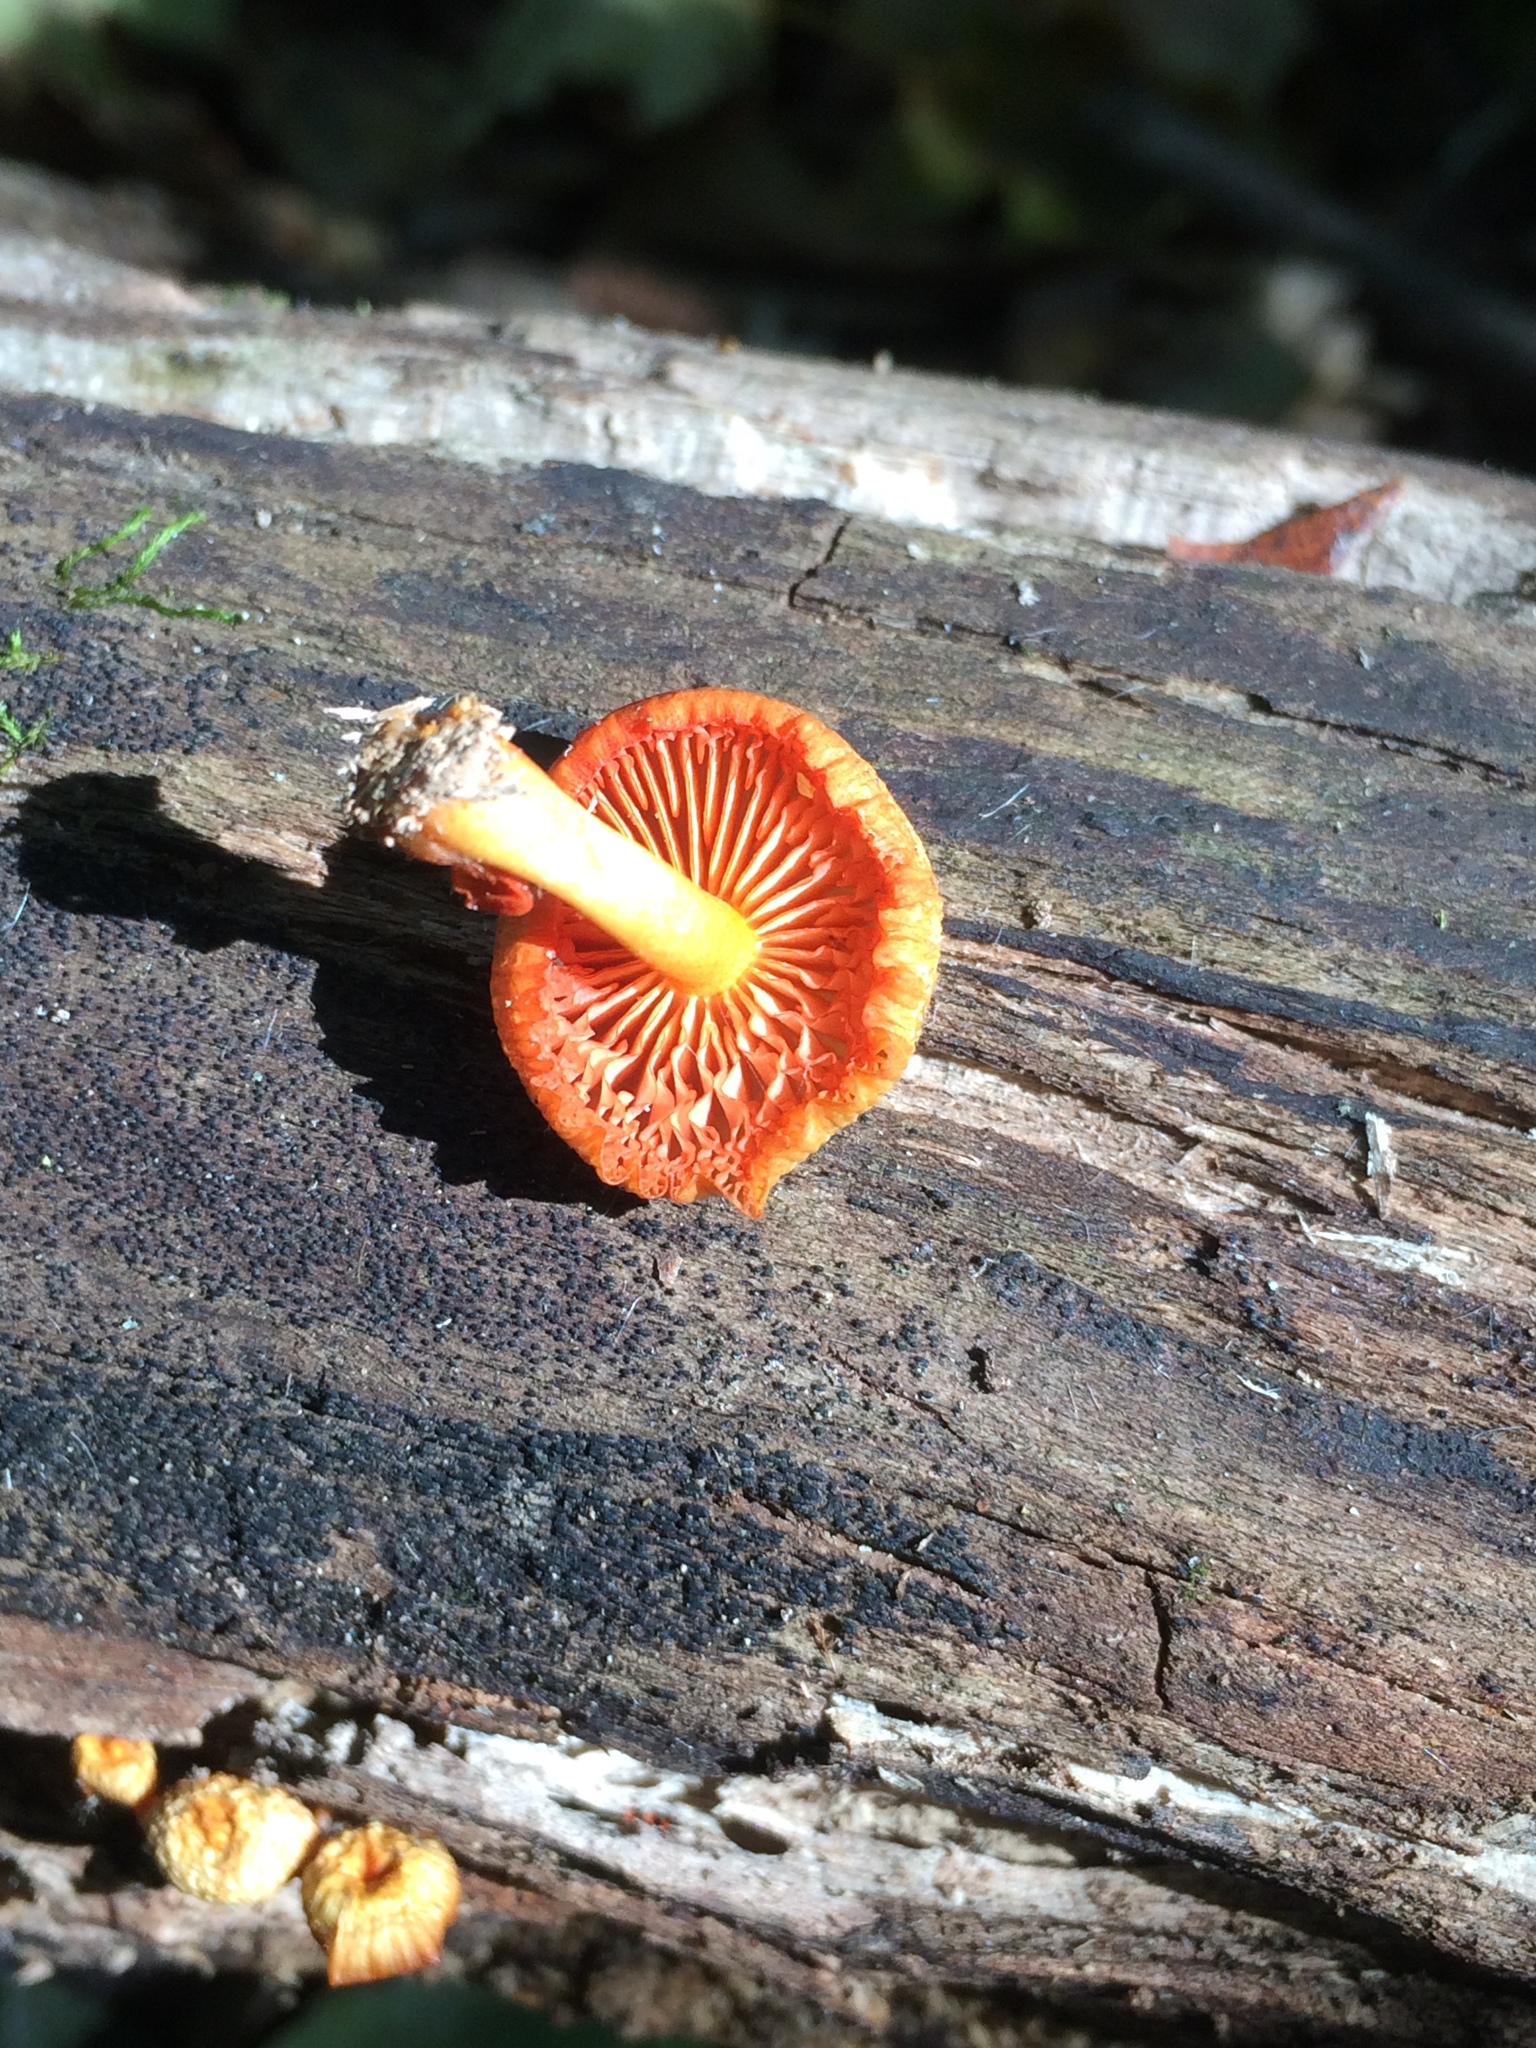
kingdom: Fungi
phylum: Basidiomycota
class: Agaricomycetes
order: Agaricales
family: Mycenaceae
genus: Mycena
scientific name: Mycena leaiana
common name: Orange mycena
